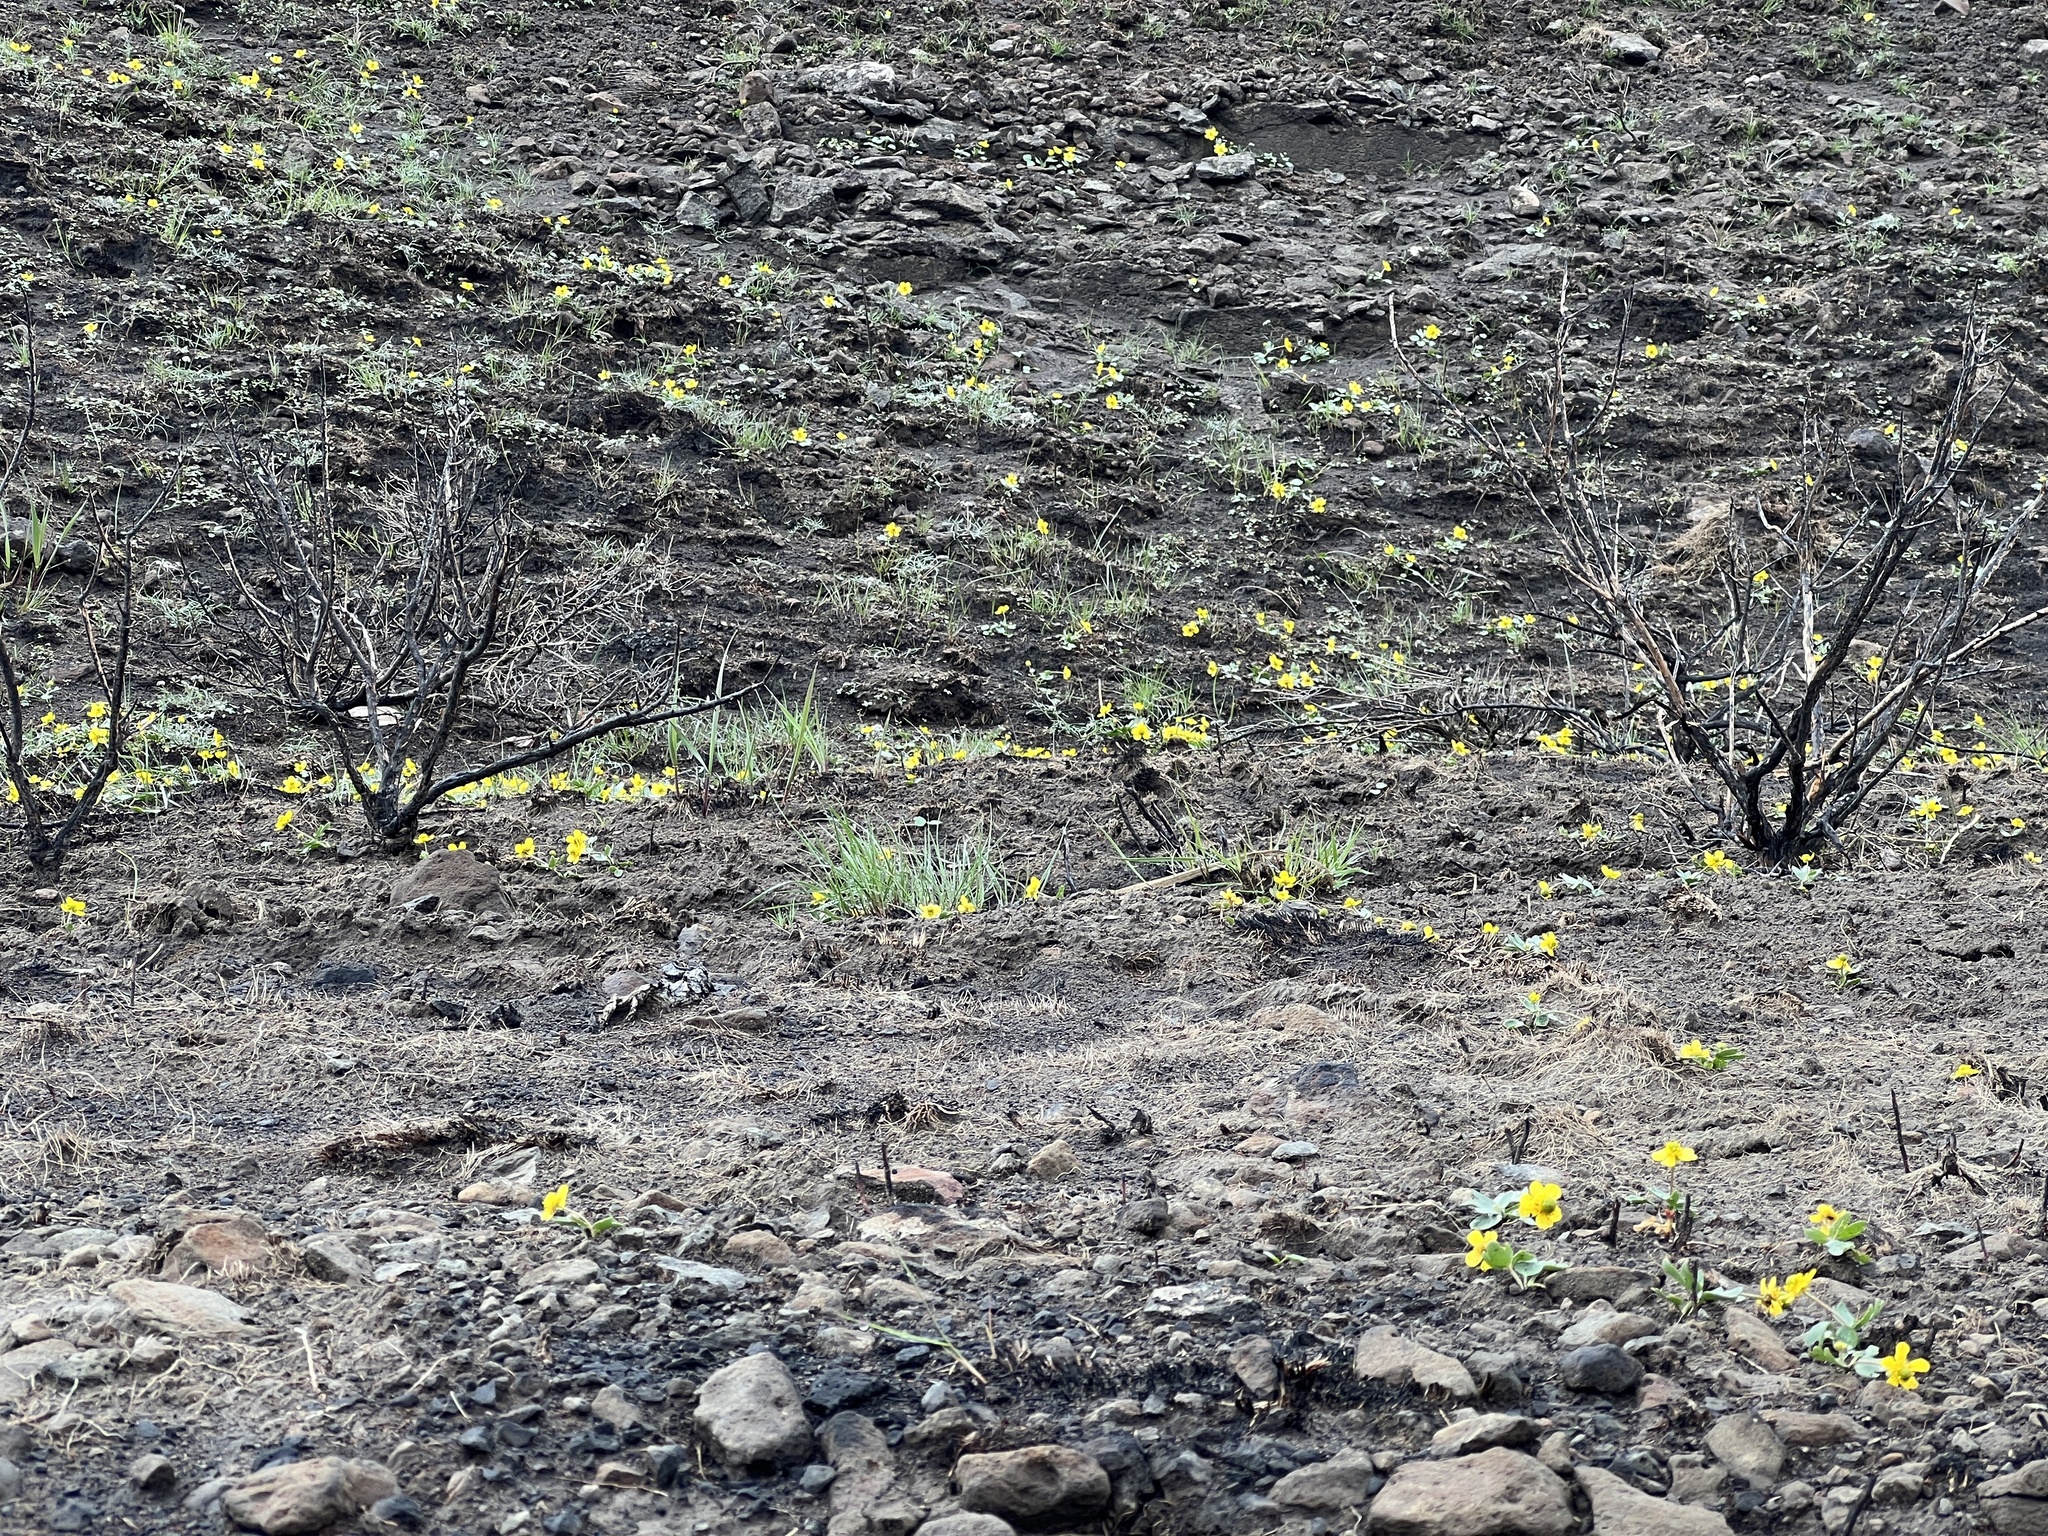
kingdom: Plantae
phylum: Tracheophyta
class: Magnoliopsida
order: Ranunculales
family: Ranunculaceae
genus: Ranunculus
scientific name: Ranunculus glaberrimus
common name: Sagebrush buttercup
